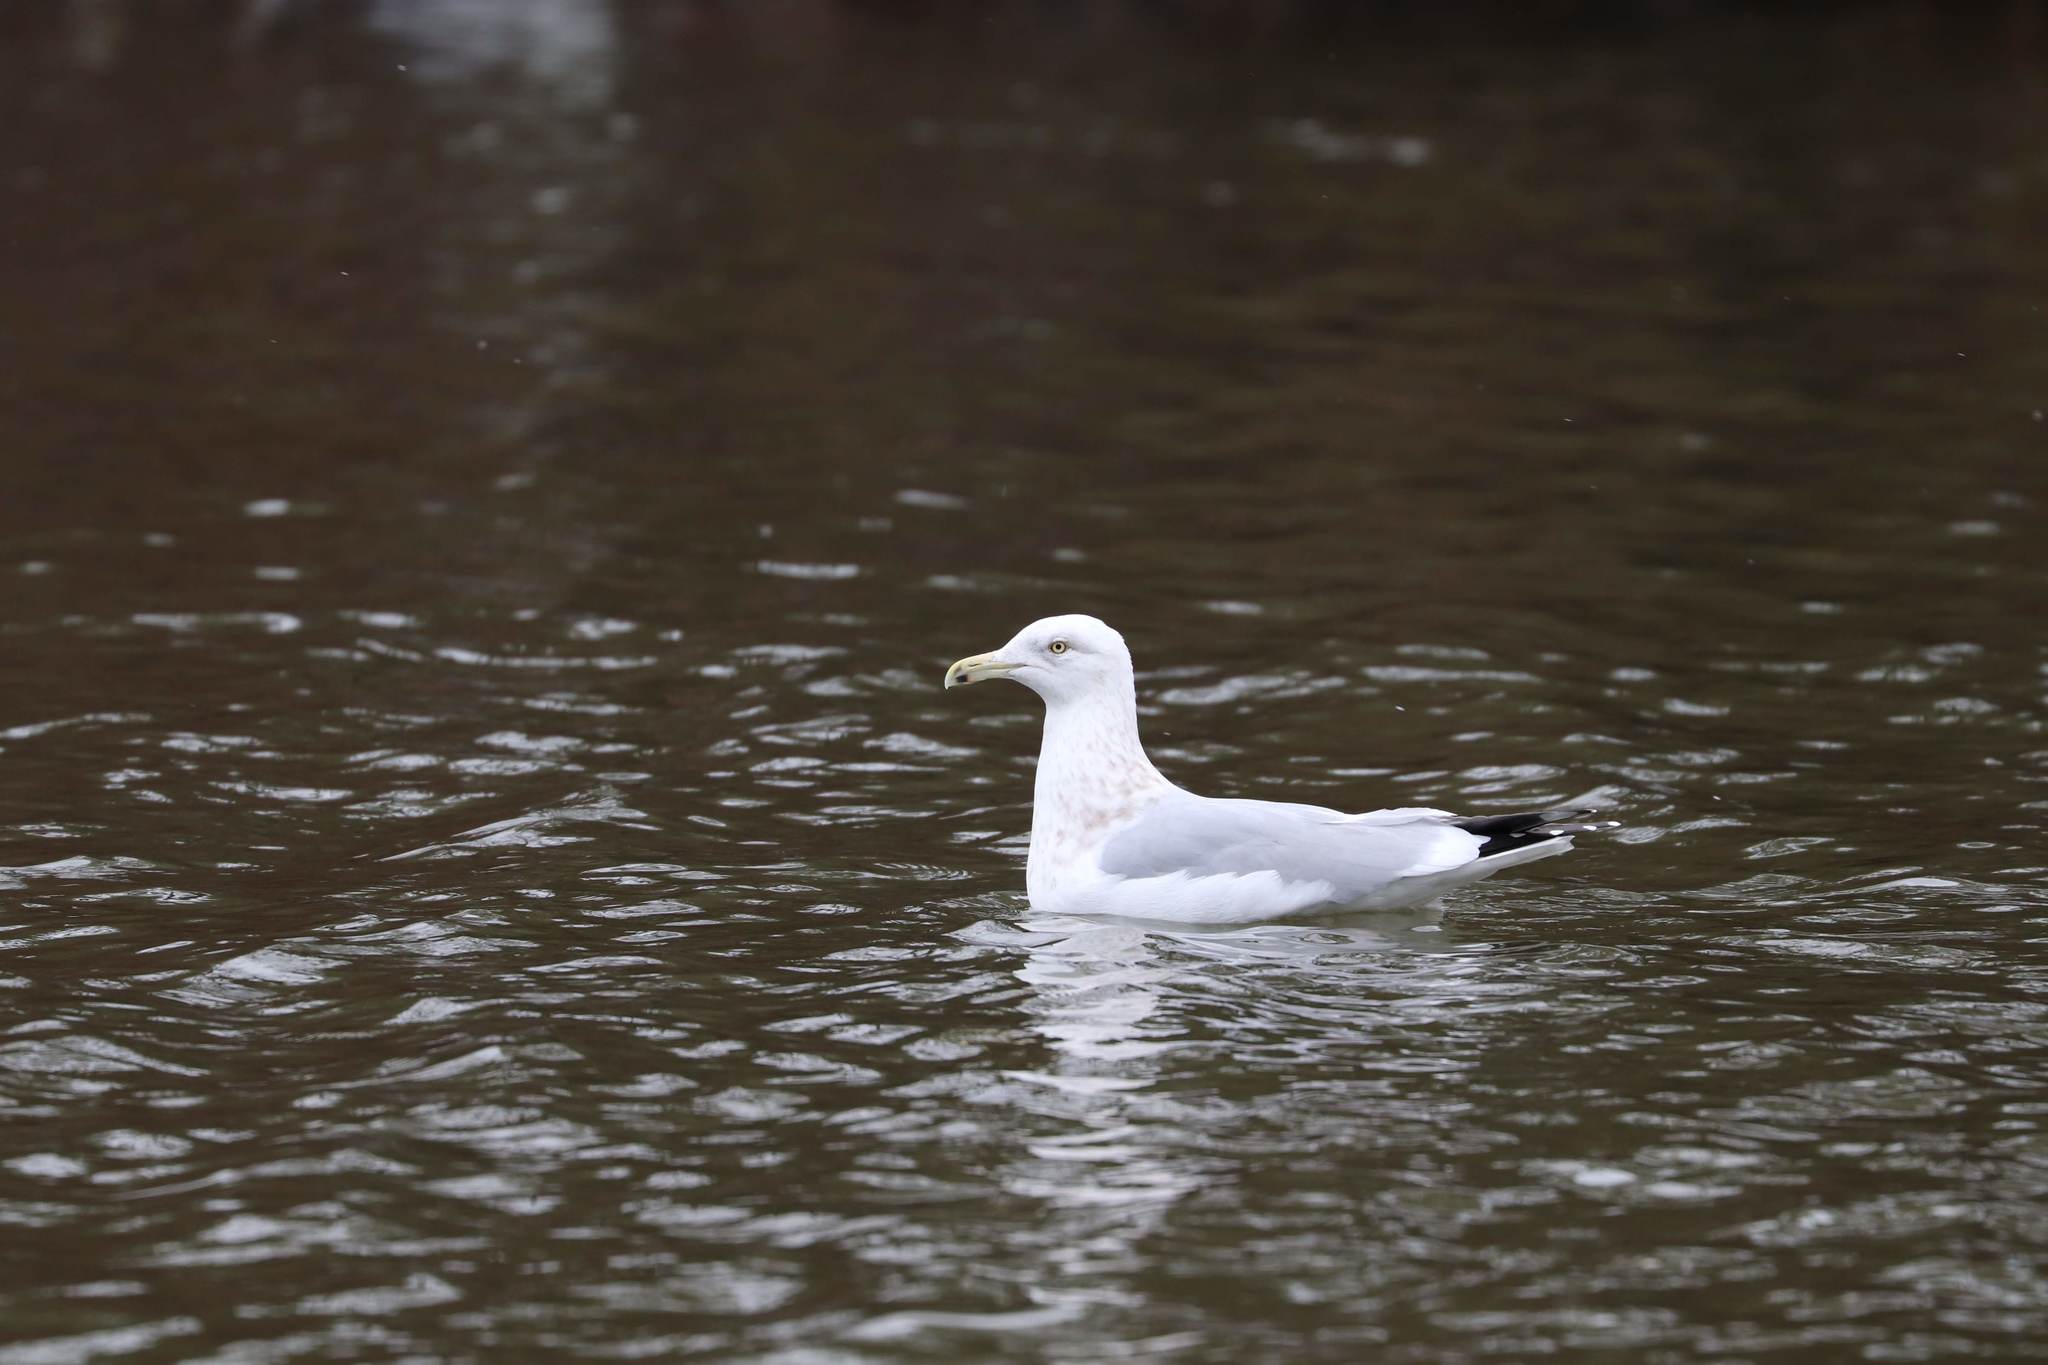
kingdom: Animalia
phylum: Chordata
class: Aves
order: Charadriiformes
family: Laridae
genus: Larus
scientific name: Larus argentatus
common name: Herring gull
